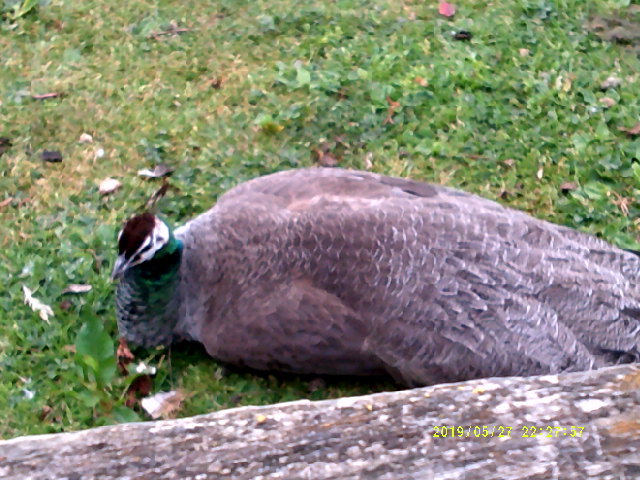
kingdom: Animalia
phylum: Chordata
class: Aves
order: Galliformes
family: Phasianidae
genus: Pavo
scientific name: Pavo cristatus
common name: Indian peafowl
